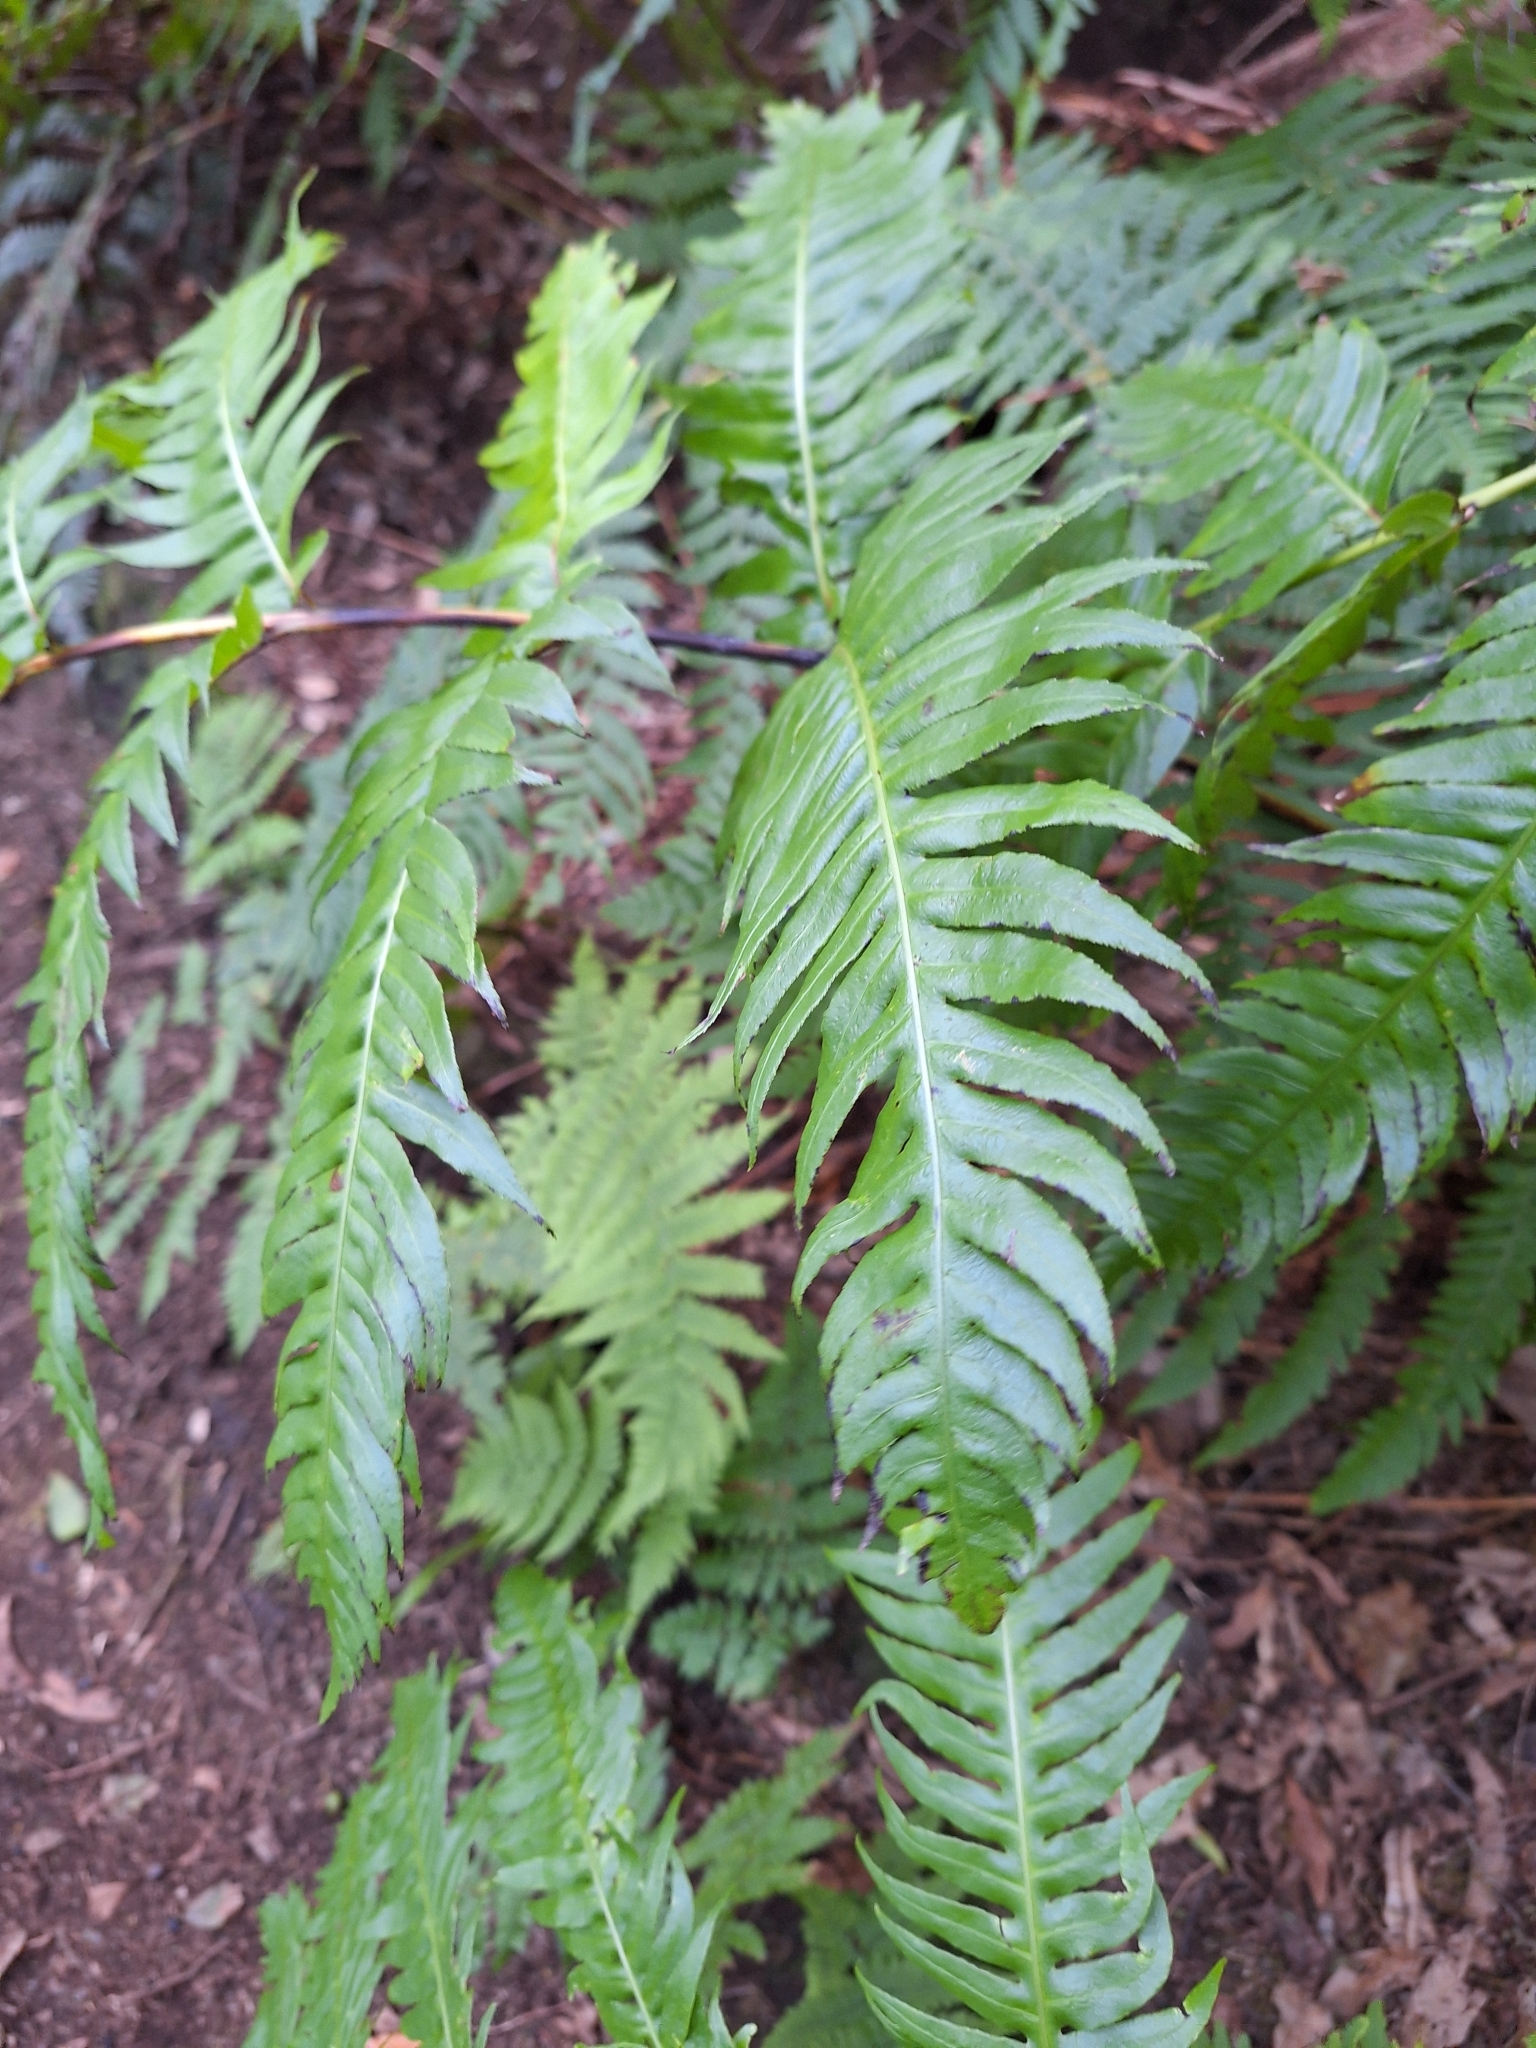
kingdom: Plantae
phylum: Tracheophyta
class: Polypodiopsida
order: Polypodiales
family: Blechnaceae
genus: Woodwardia
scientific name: Woodwardia radicans
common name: Rooting chainfern
